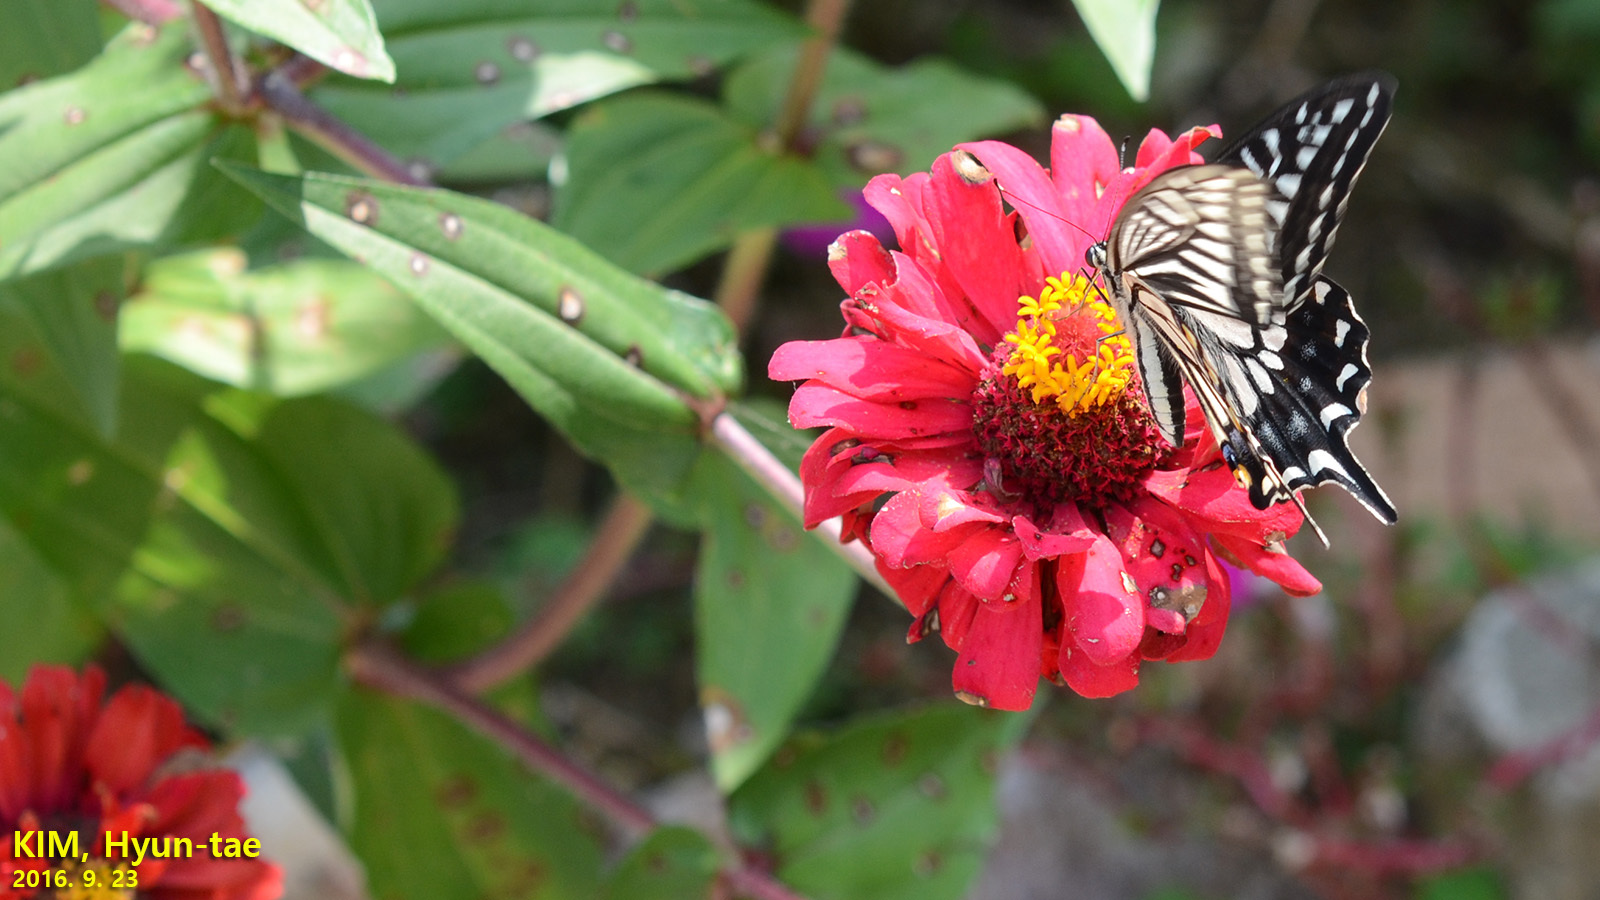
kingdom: Animalia
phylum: Arthropoda
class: Insecta
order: Lepidoptera
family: Papilionidae
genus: Papilio
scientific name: Papilio xuthus
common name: Asian swallowtail
